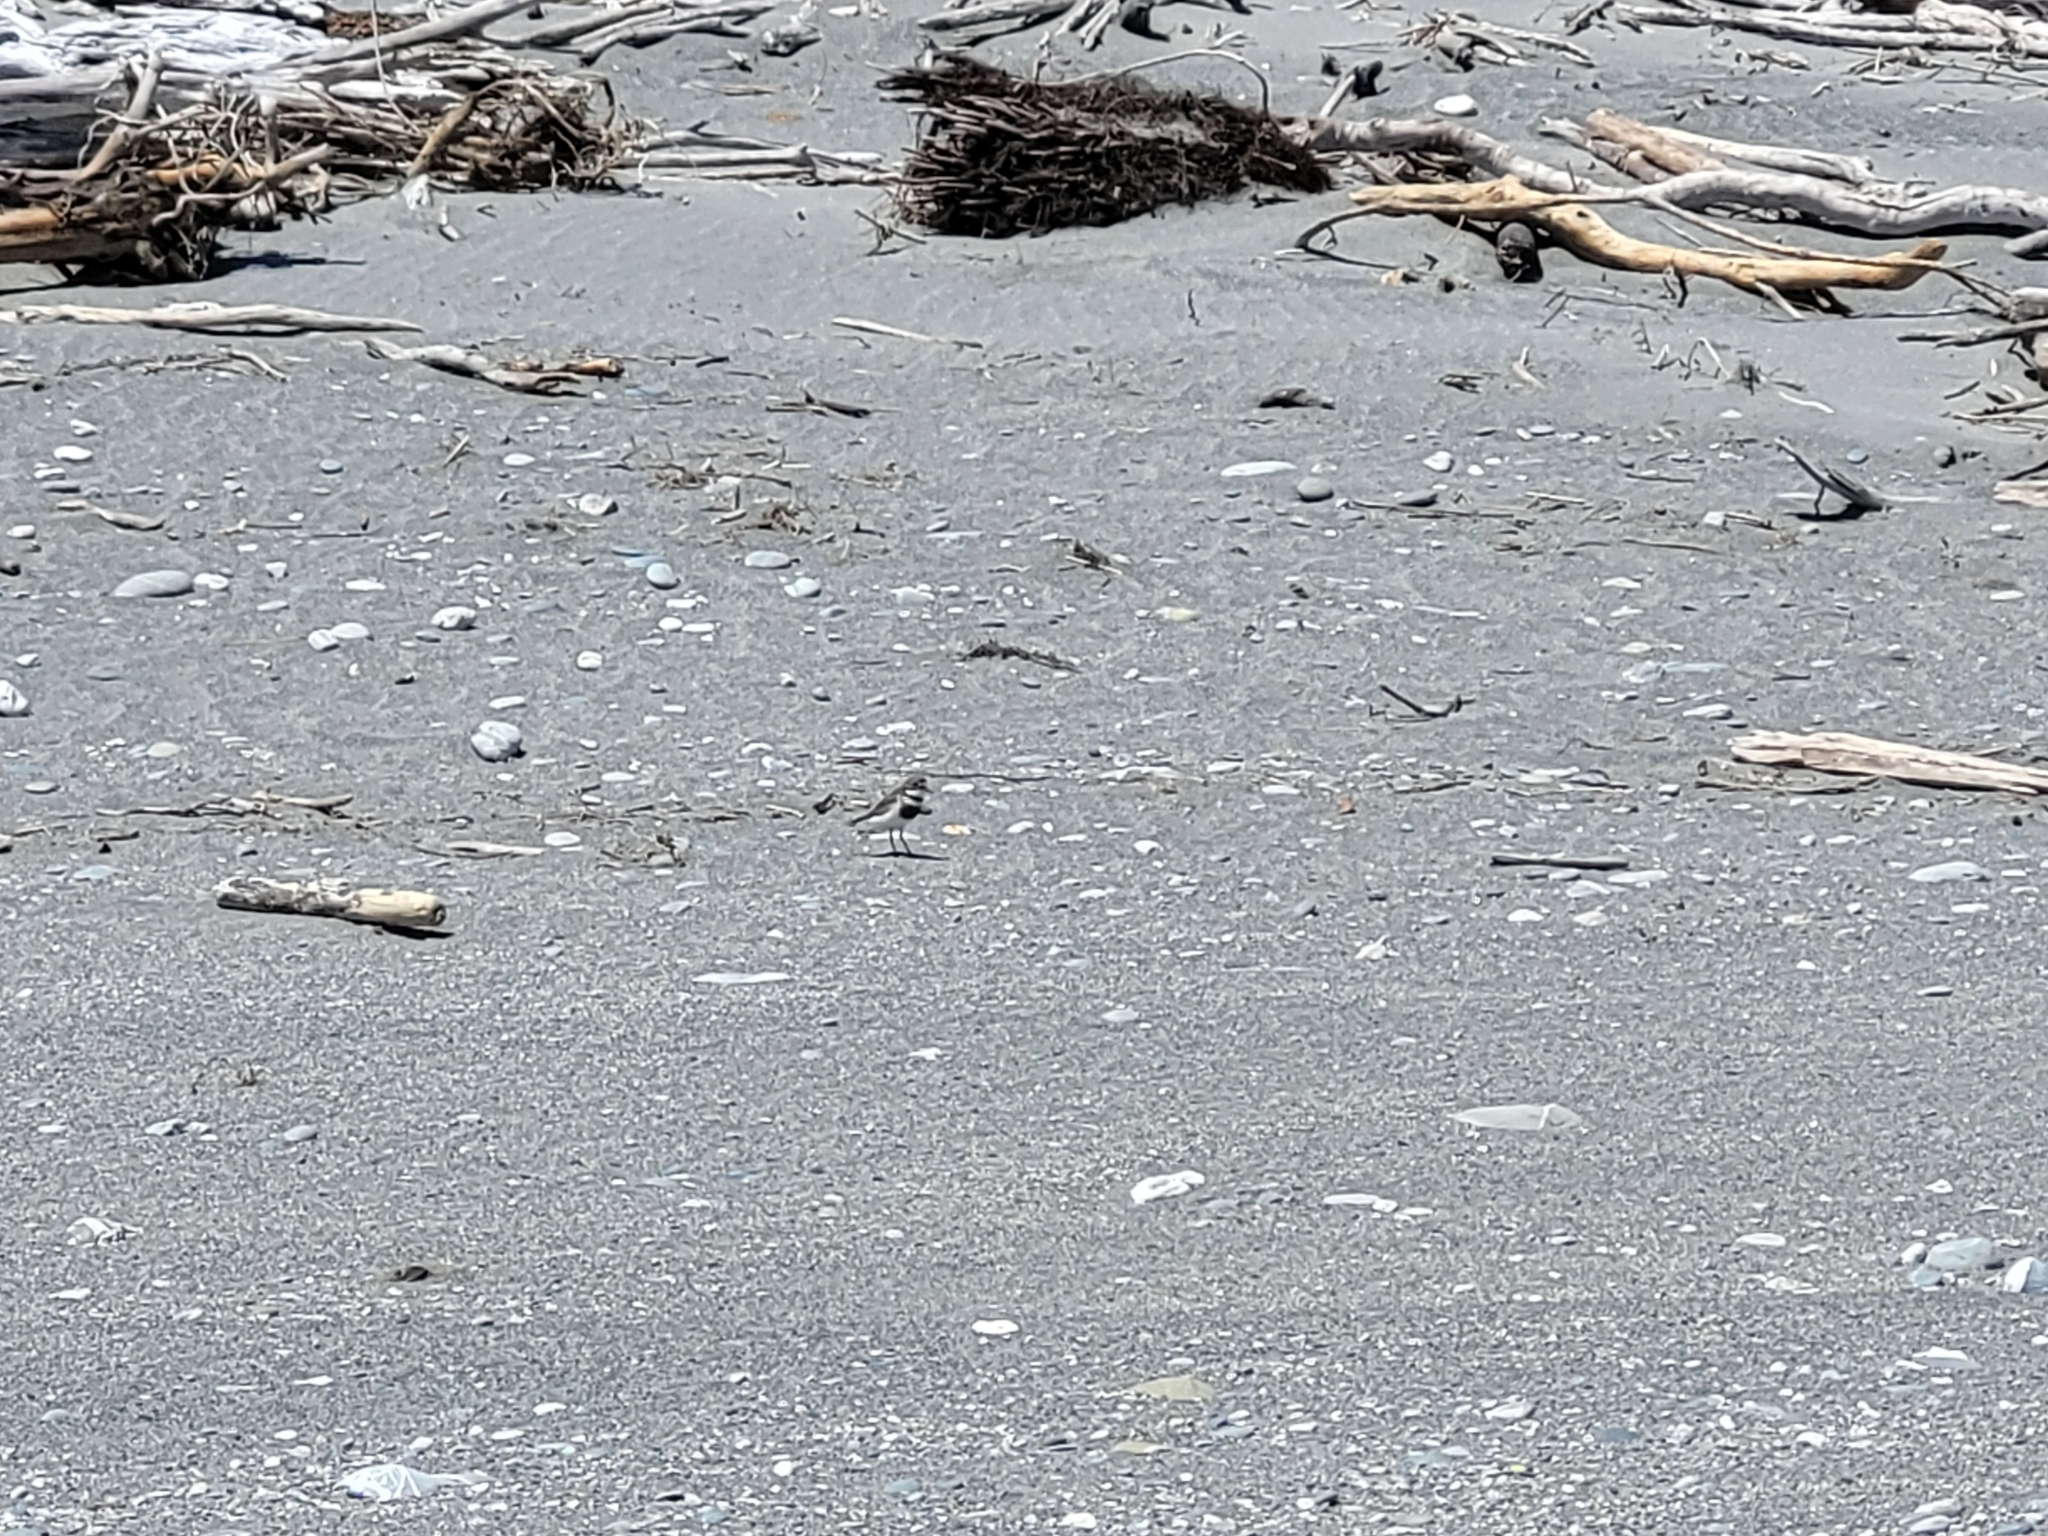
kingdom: Animalia
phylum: Chordata
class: Aves
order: Charadriiformes
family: Charadriidae
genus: Anarhynchus
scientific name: Anarhynchus
